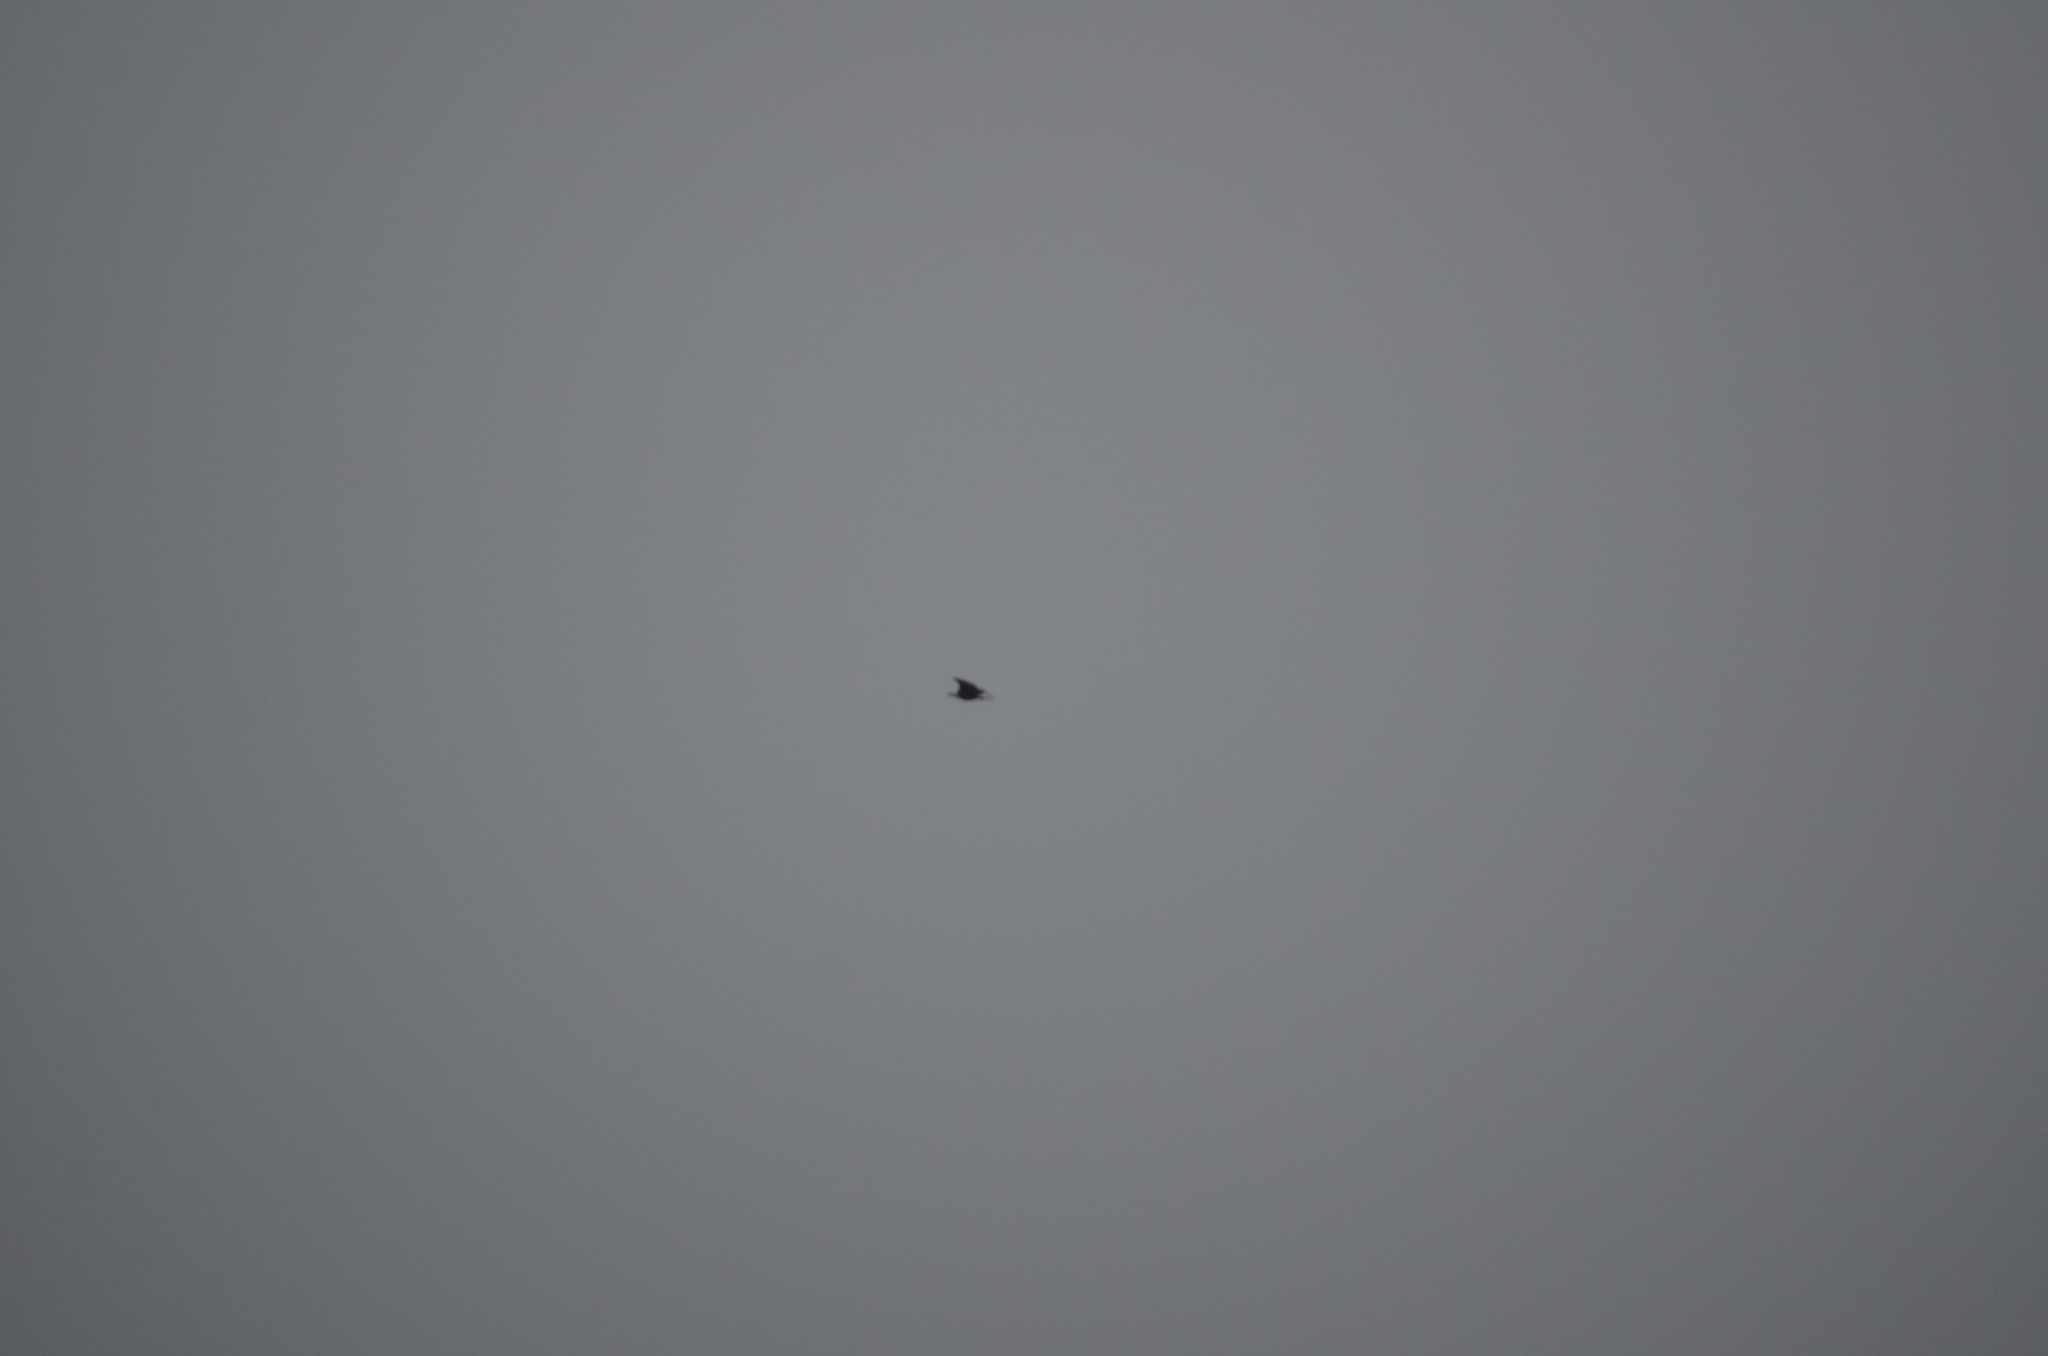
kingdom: Animalia
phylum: Chordata
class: Aves
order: Accipitriformes
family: Accipitridae
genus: Haliaeetus
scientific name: Haliaeetus leucocephalus
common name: Bald eagle
